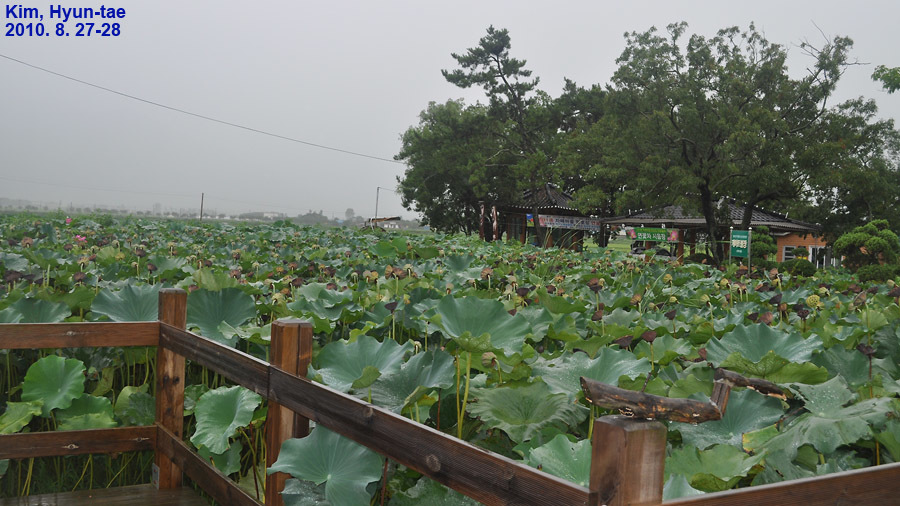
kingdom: Plantae
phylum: Tracheophyta
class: Magnoliopsida
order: Proteales
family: Nelumbonaceae
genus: Nelumbo
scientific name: Nelumbo nucifera
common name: Sacred lotus
